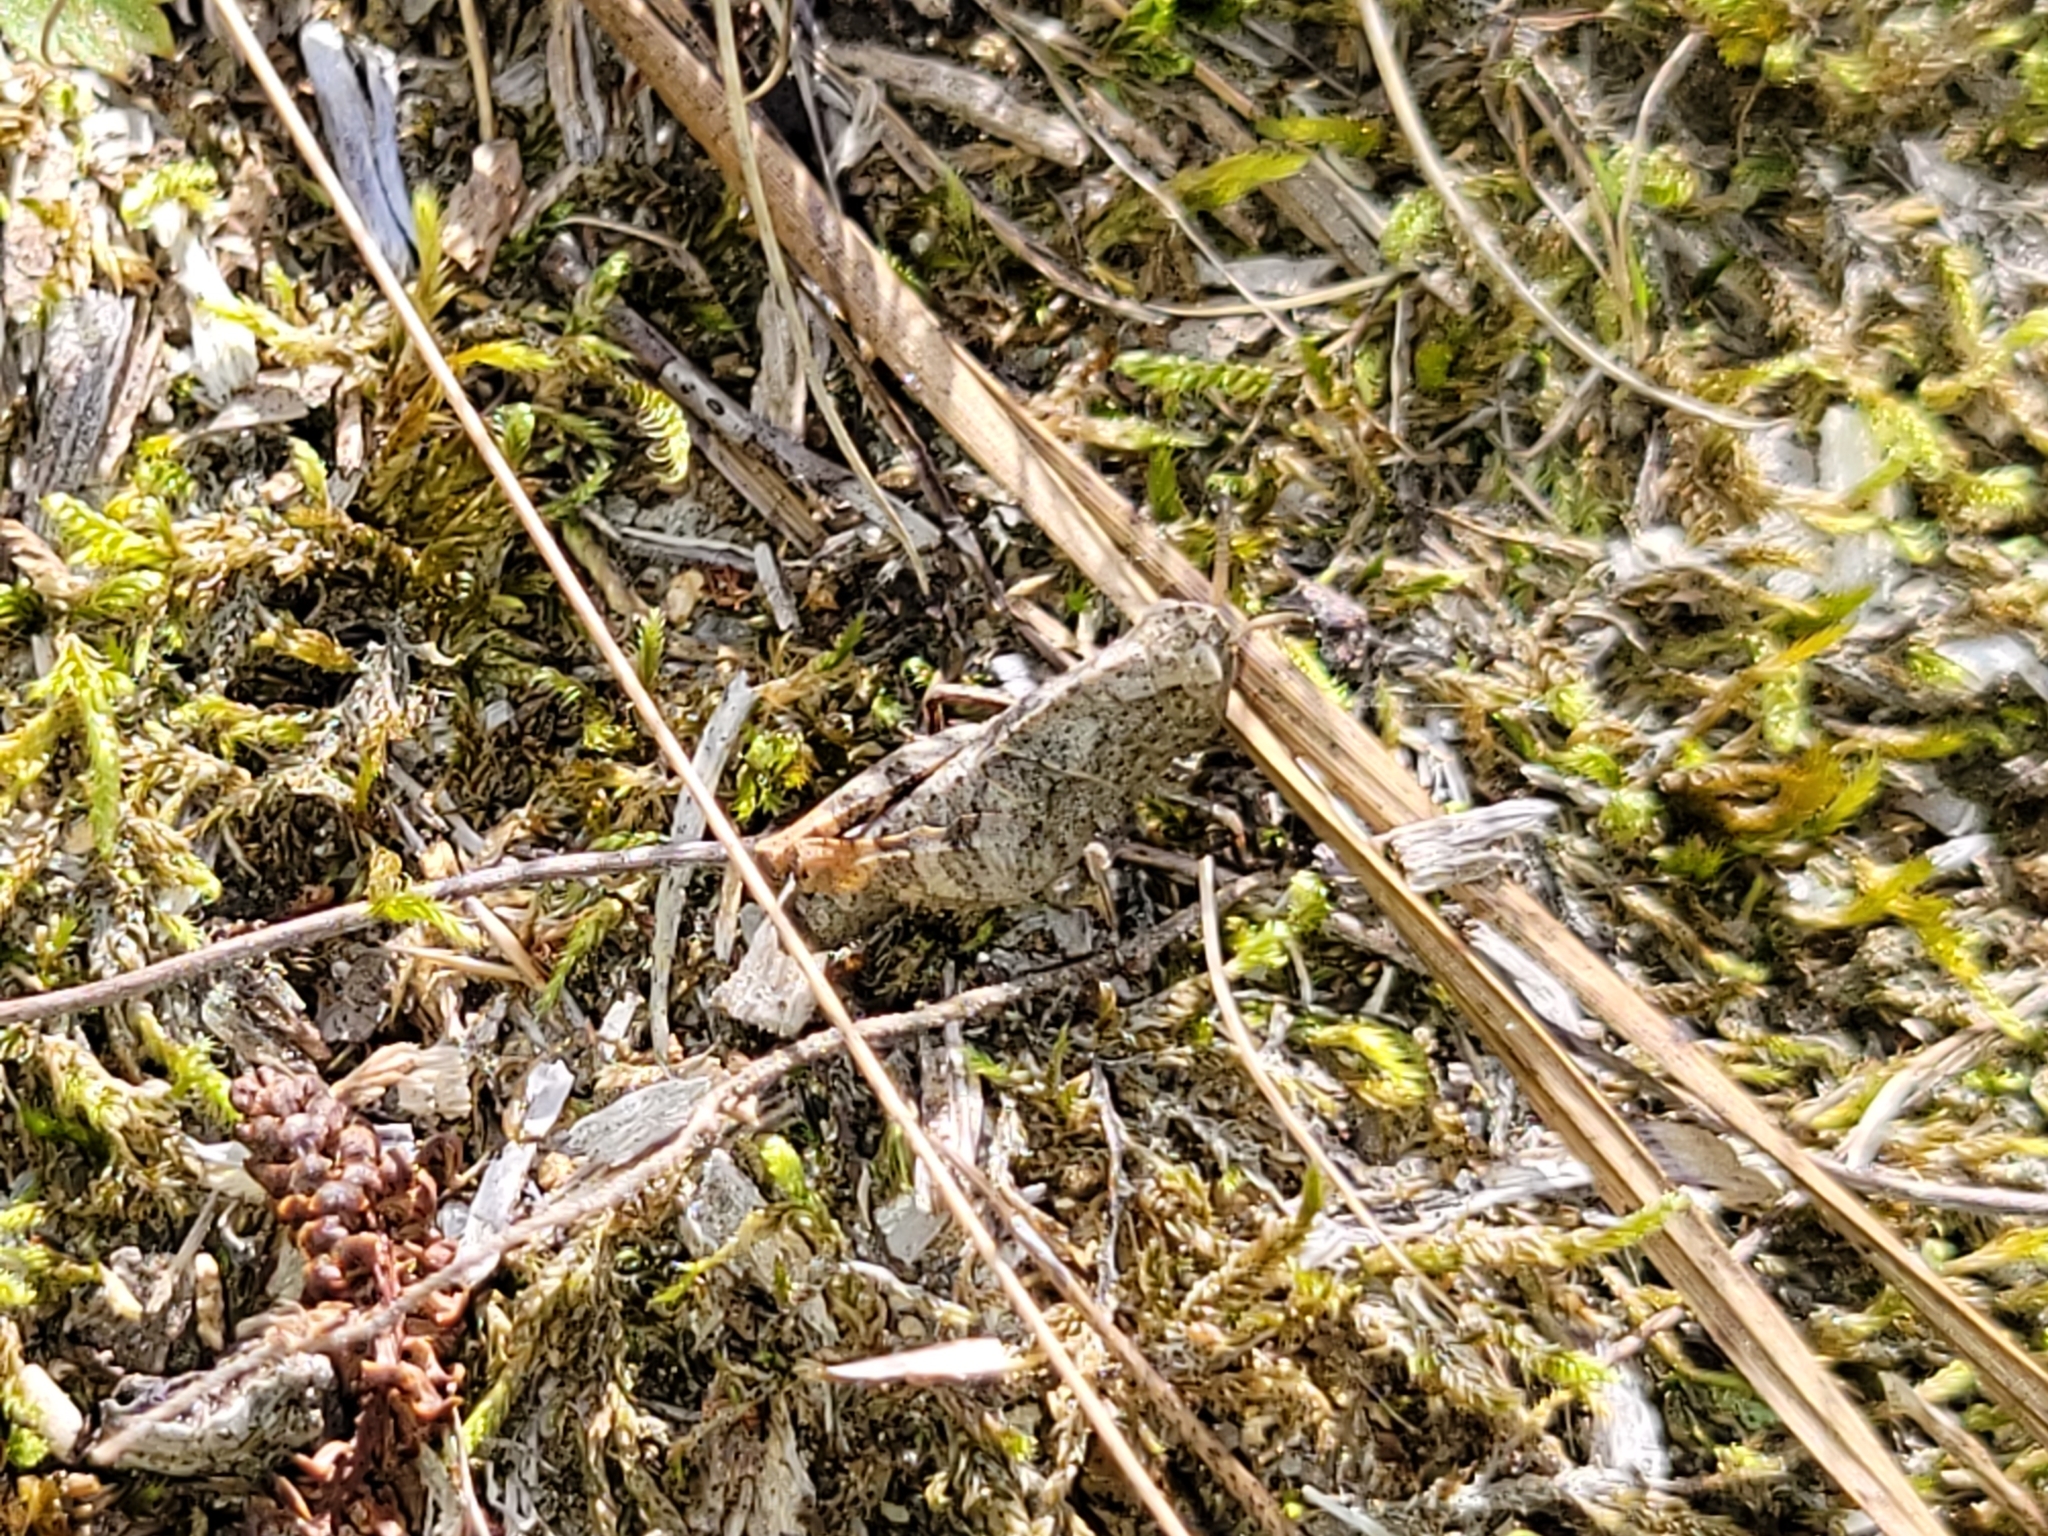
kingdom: Animalia
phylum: Arthropoda
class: Insecta
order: Orthoptera
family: Acrididae
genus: Arphia
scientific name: Arphia sulphurea
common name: Spring yellow-winged locust
